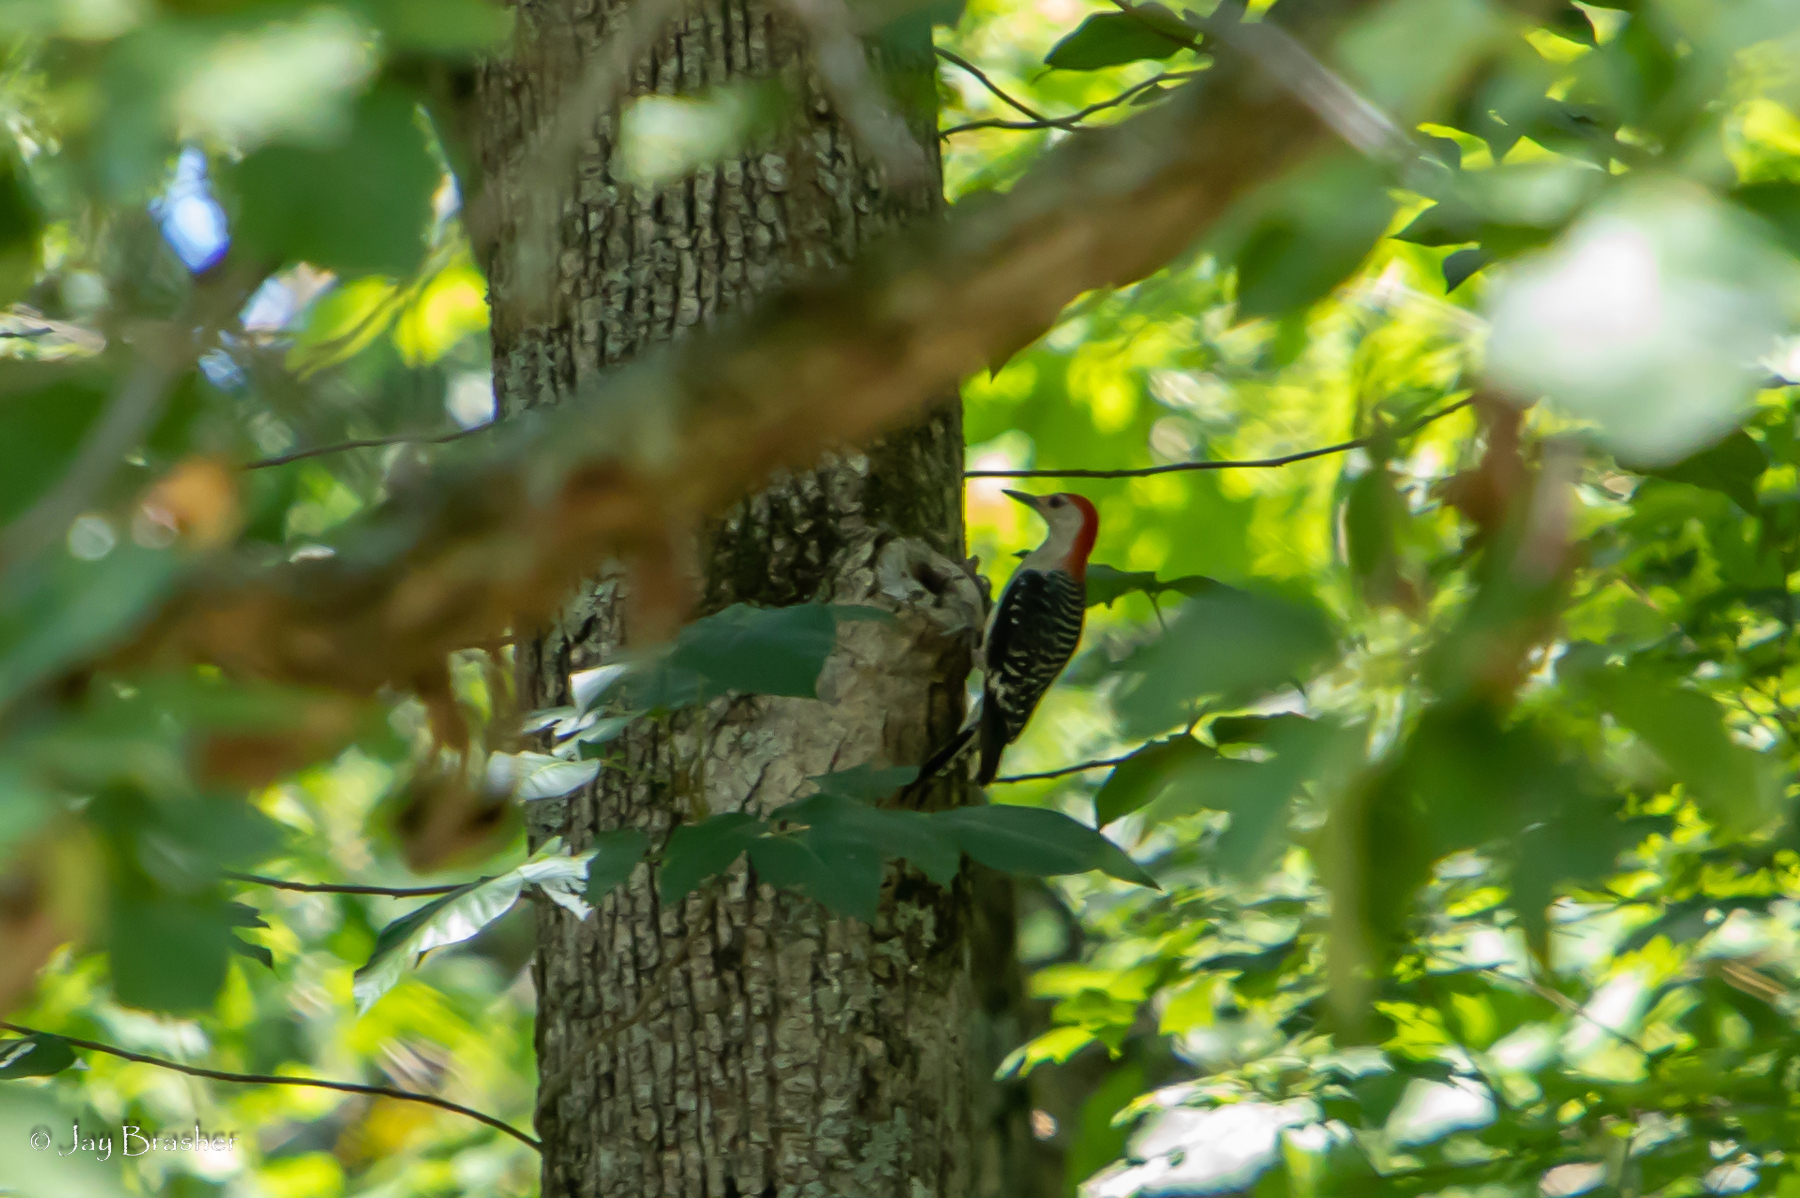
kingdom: Animalia
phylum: Chordata
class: Aves
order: Piciformes
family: Picidae
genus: Melanerpes
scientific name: Melanerpes carolinus
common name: Red-bellied woodpecker
